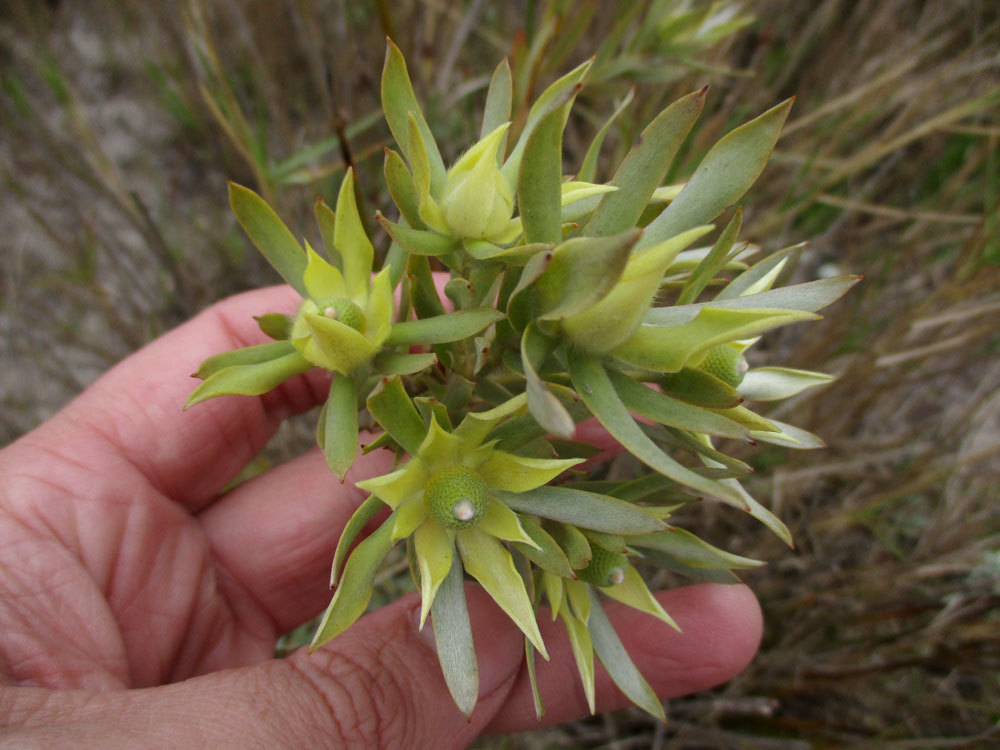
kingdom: Plantae
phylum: Tracheophyta
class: Magnoliopsida
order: Proteales
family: Proteaceae
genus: Leucadendron
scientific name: Leucadendron floridum
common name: Flats conebush
